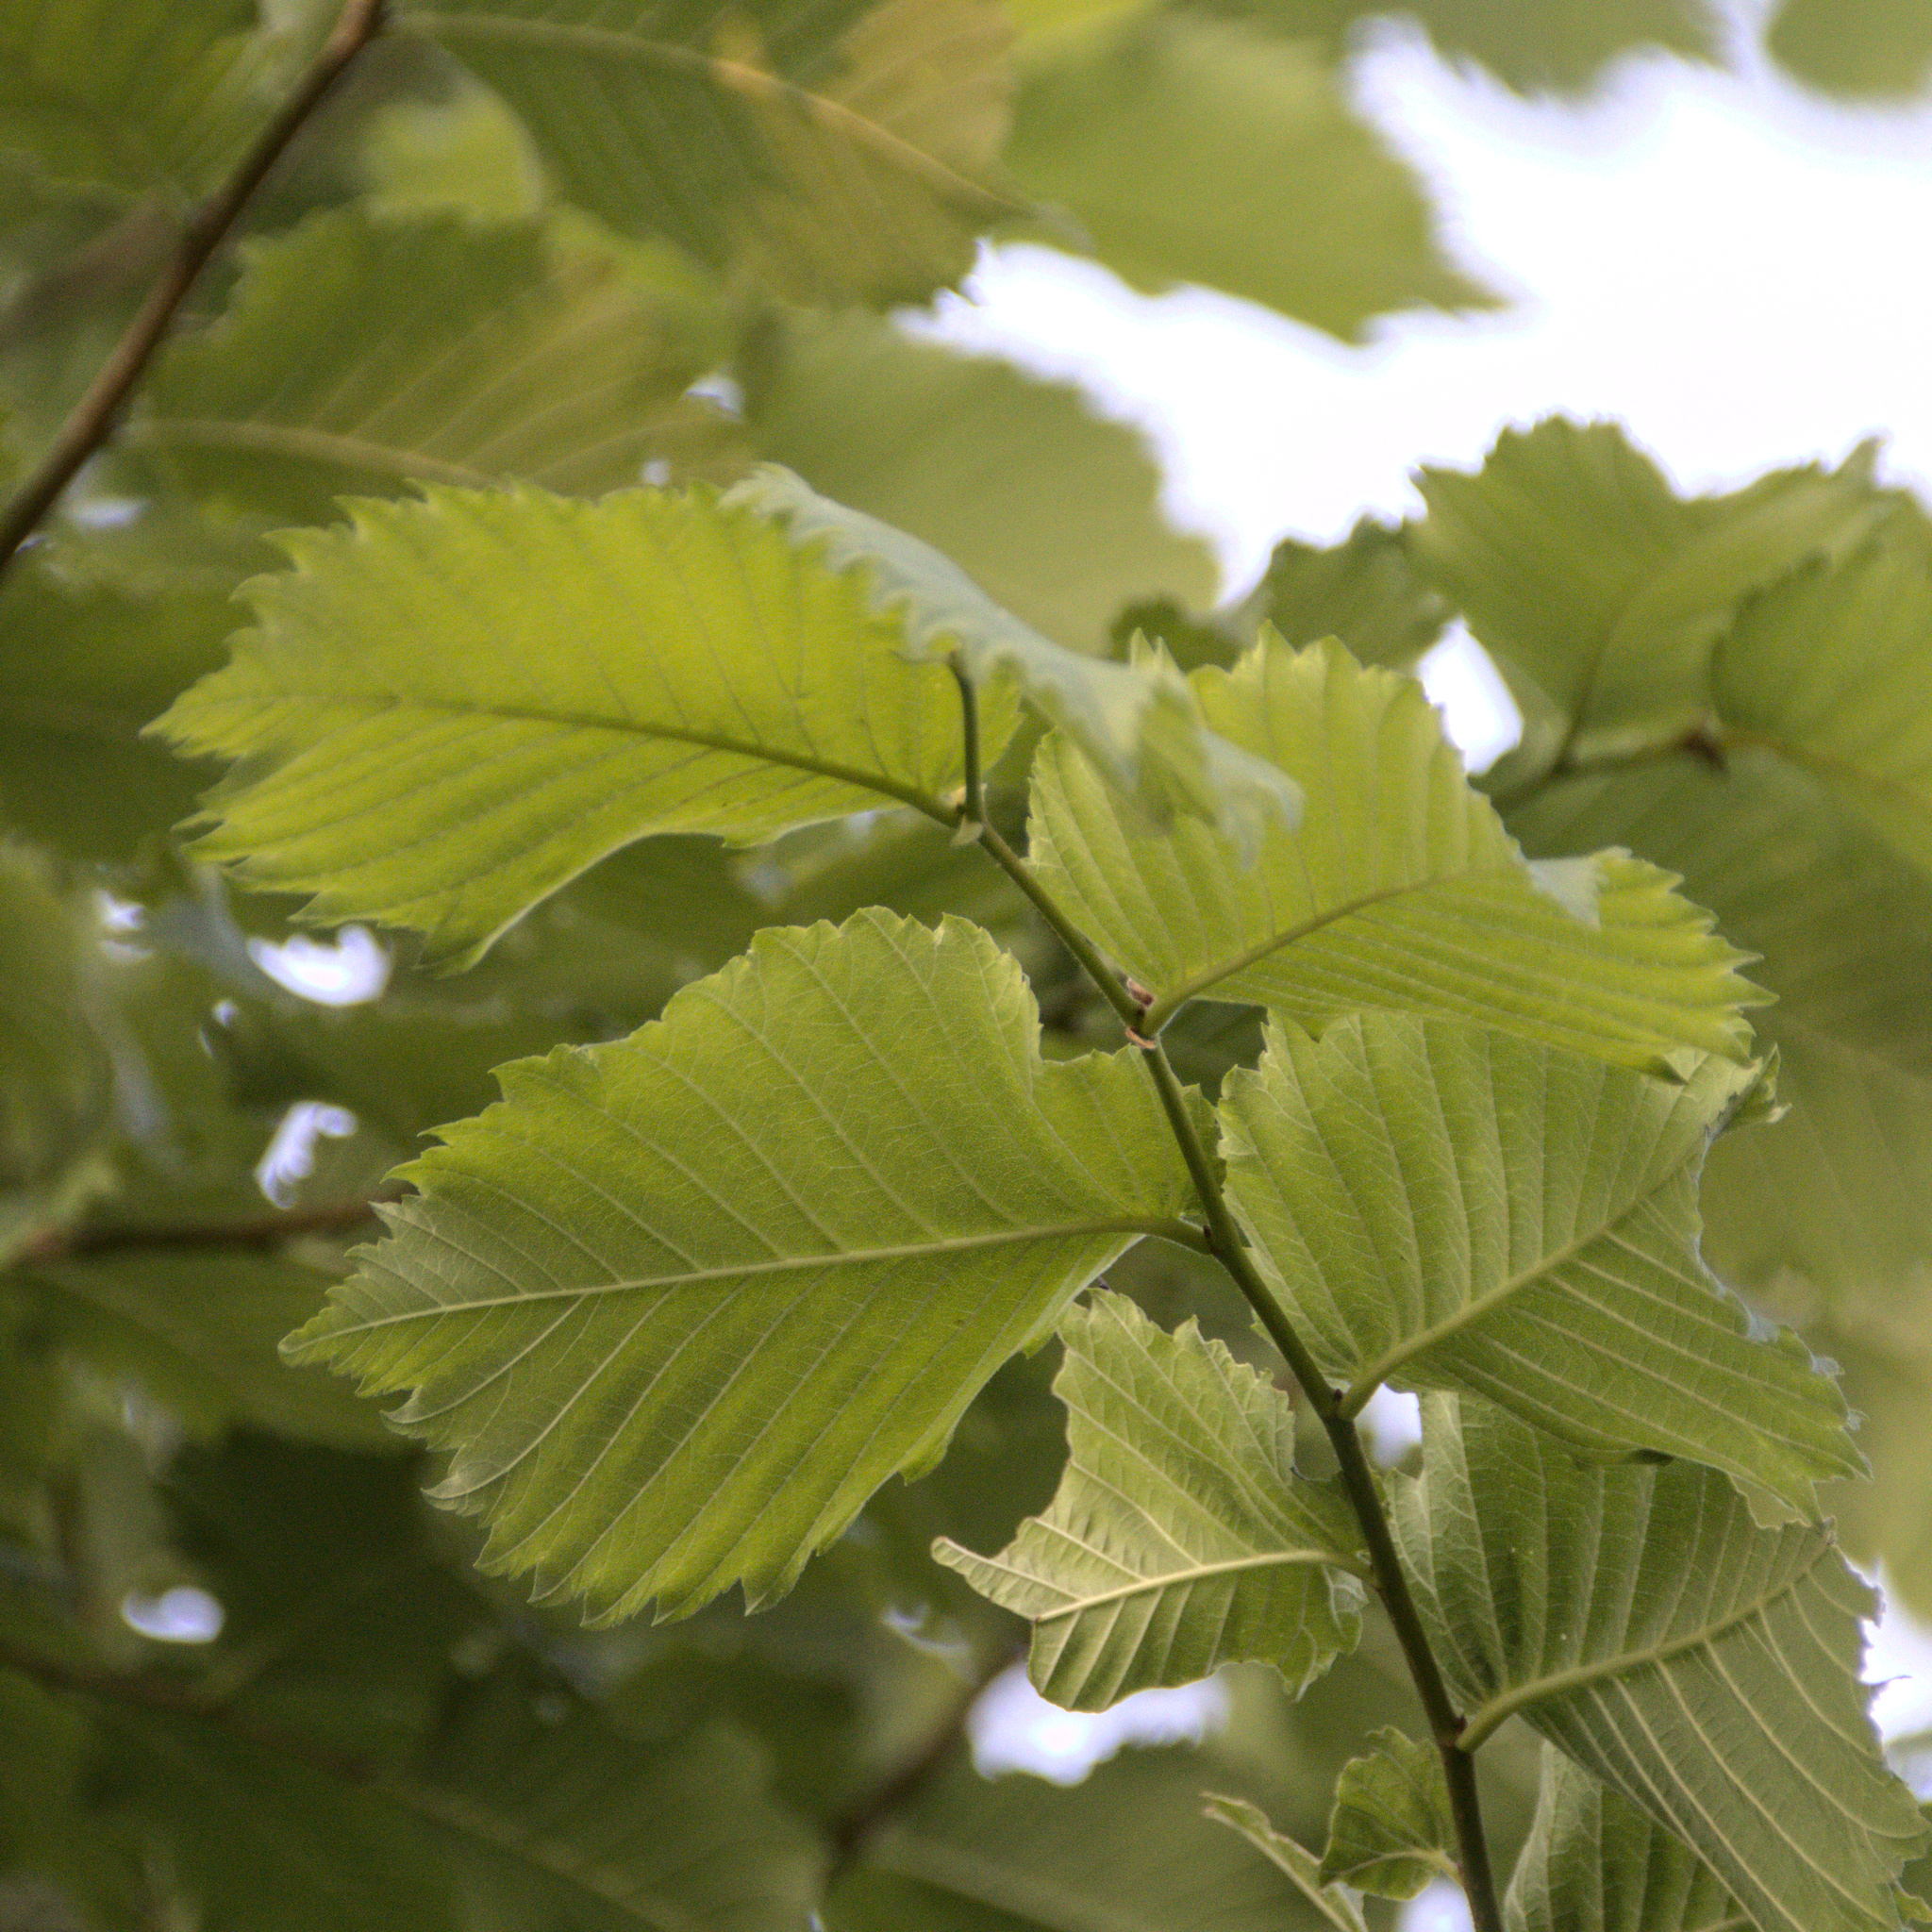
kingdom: Plantae
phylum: Tracheophyta
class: Magnoliopsida
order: Rosales
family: Ulmaceae
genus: Ulmus
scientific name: Ulmus laevis
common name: European white-elm
